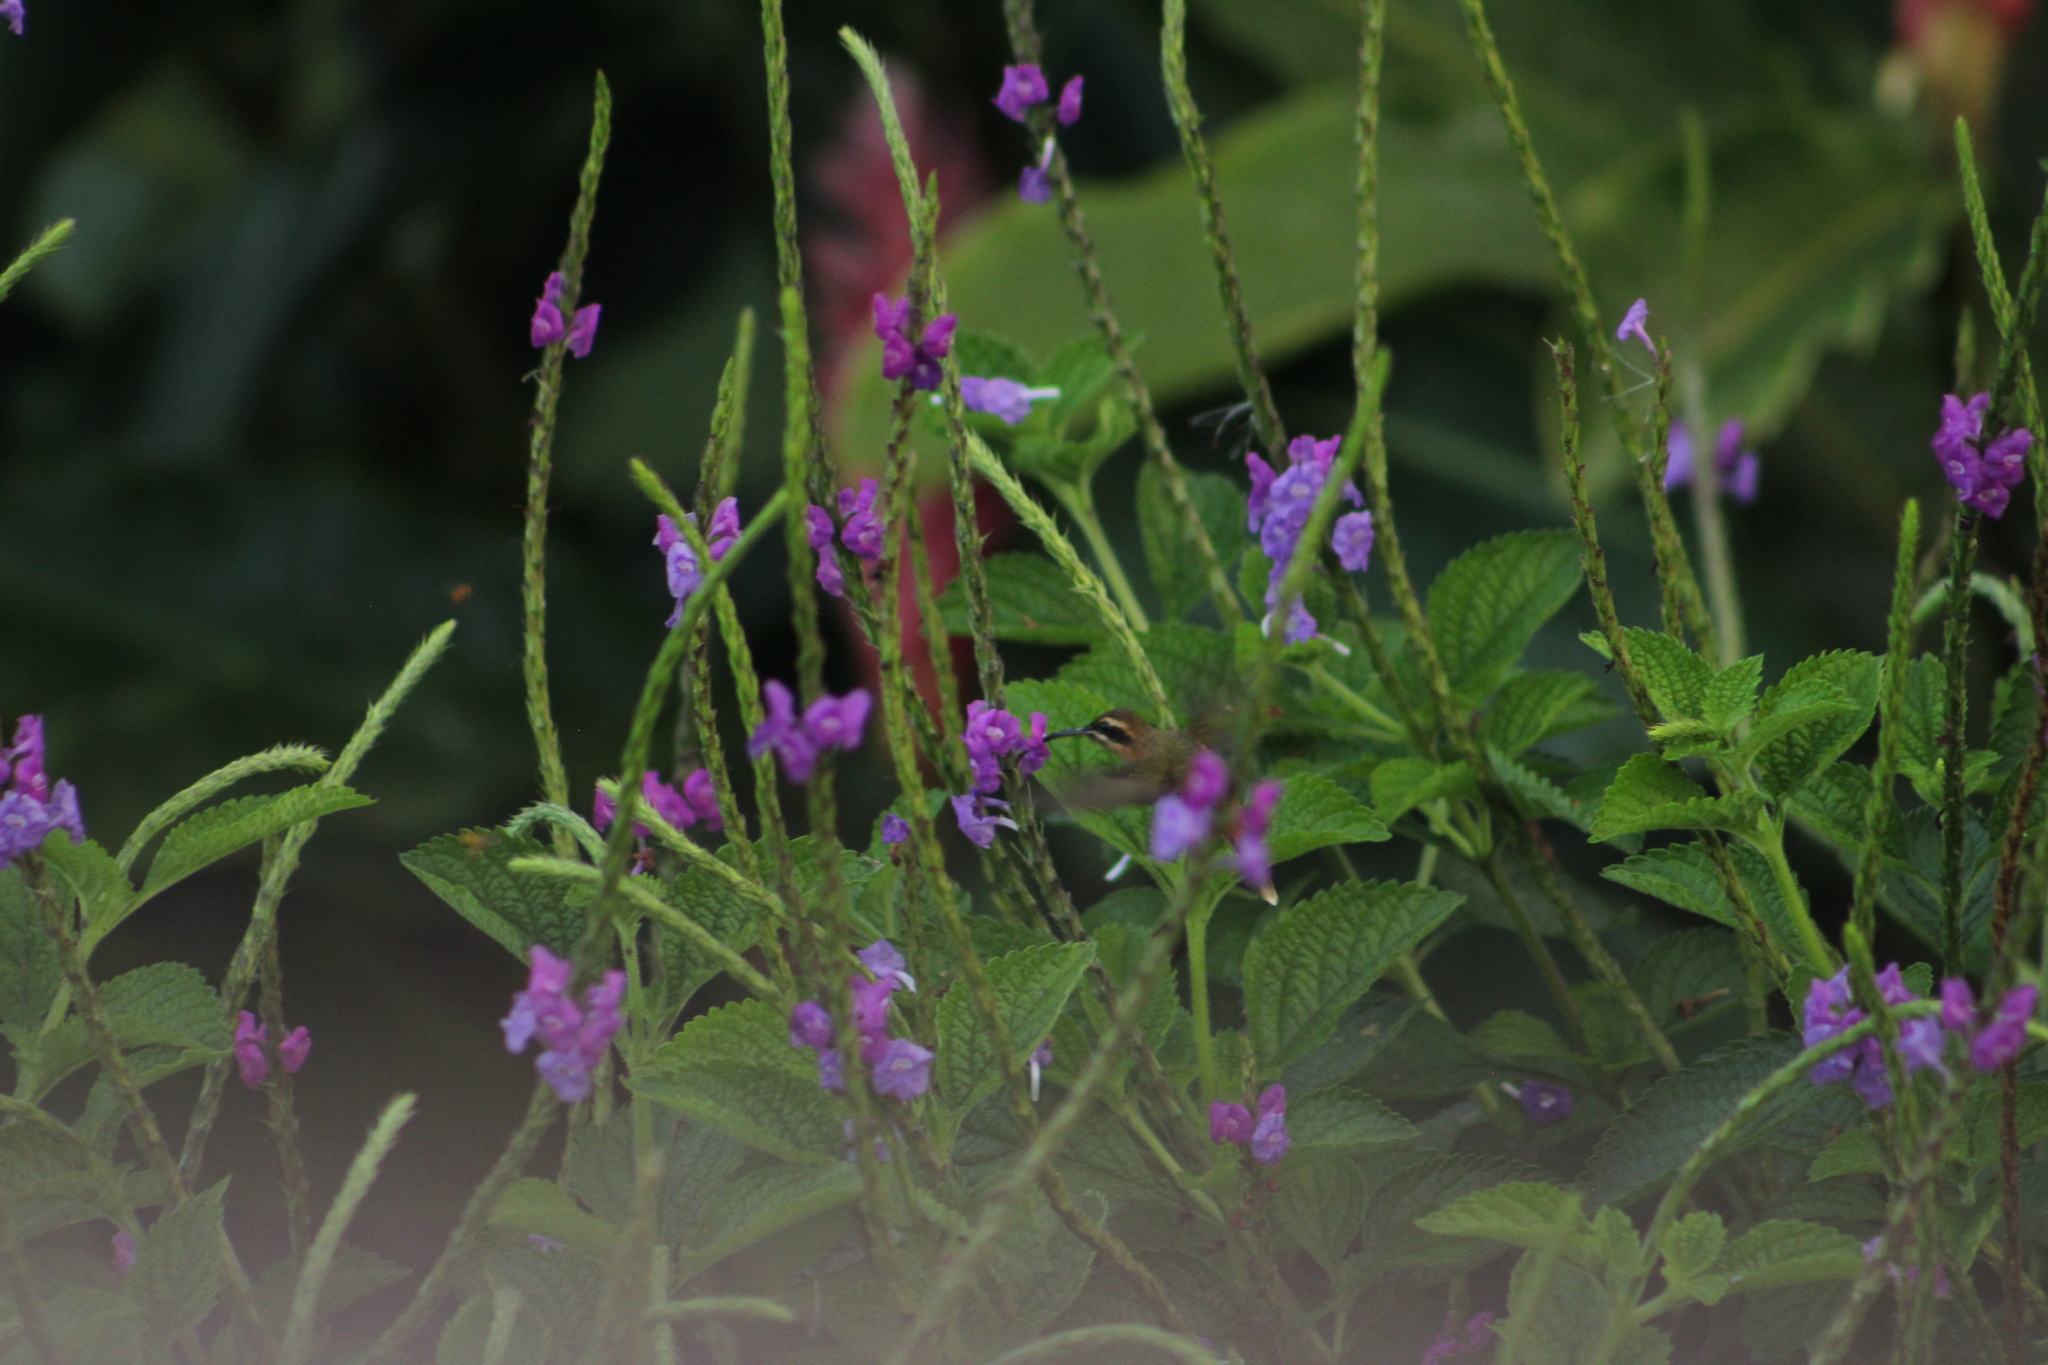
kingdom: Animalia
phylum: Chordata
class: Aves
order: Apodiformes
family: Trochilidae
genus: Phaethornis
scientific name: Phaethornis striigularis
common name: Stripe-throated hermit
